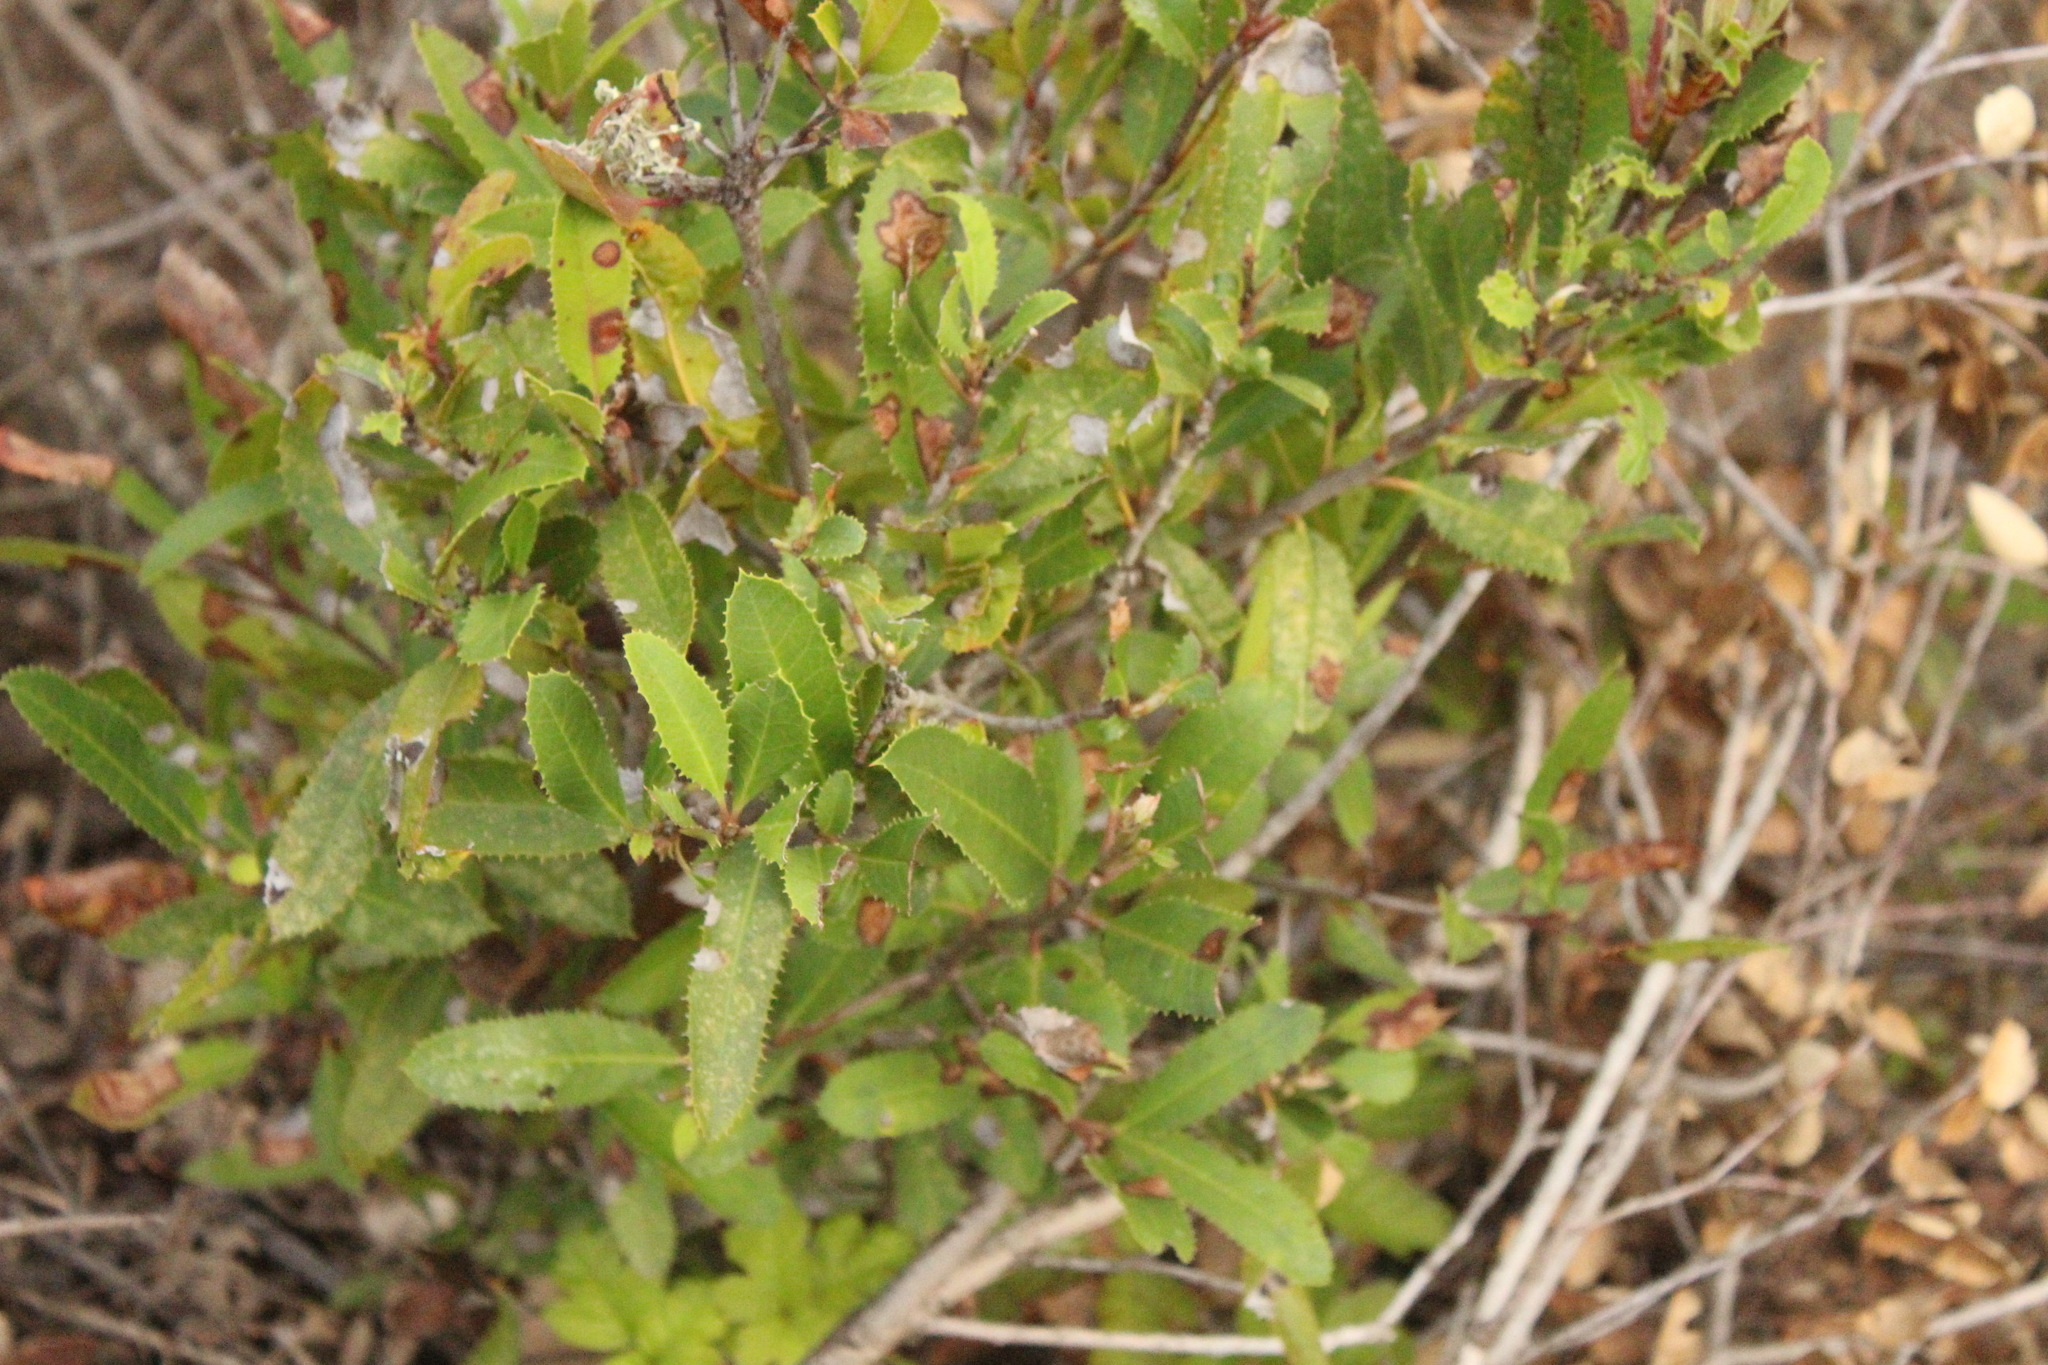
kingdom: Plantae
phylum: Tracheophyta
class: Magnoliopsida
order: Rosales
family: Rosaceae
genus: Heteromeles
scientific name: Heteromeles arbutifolia
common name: California-holly
